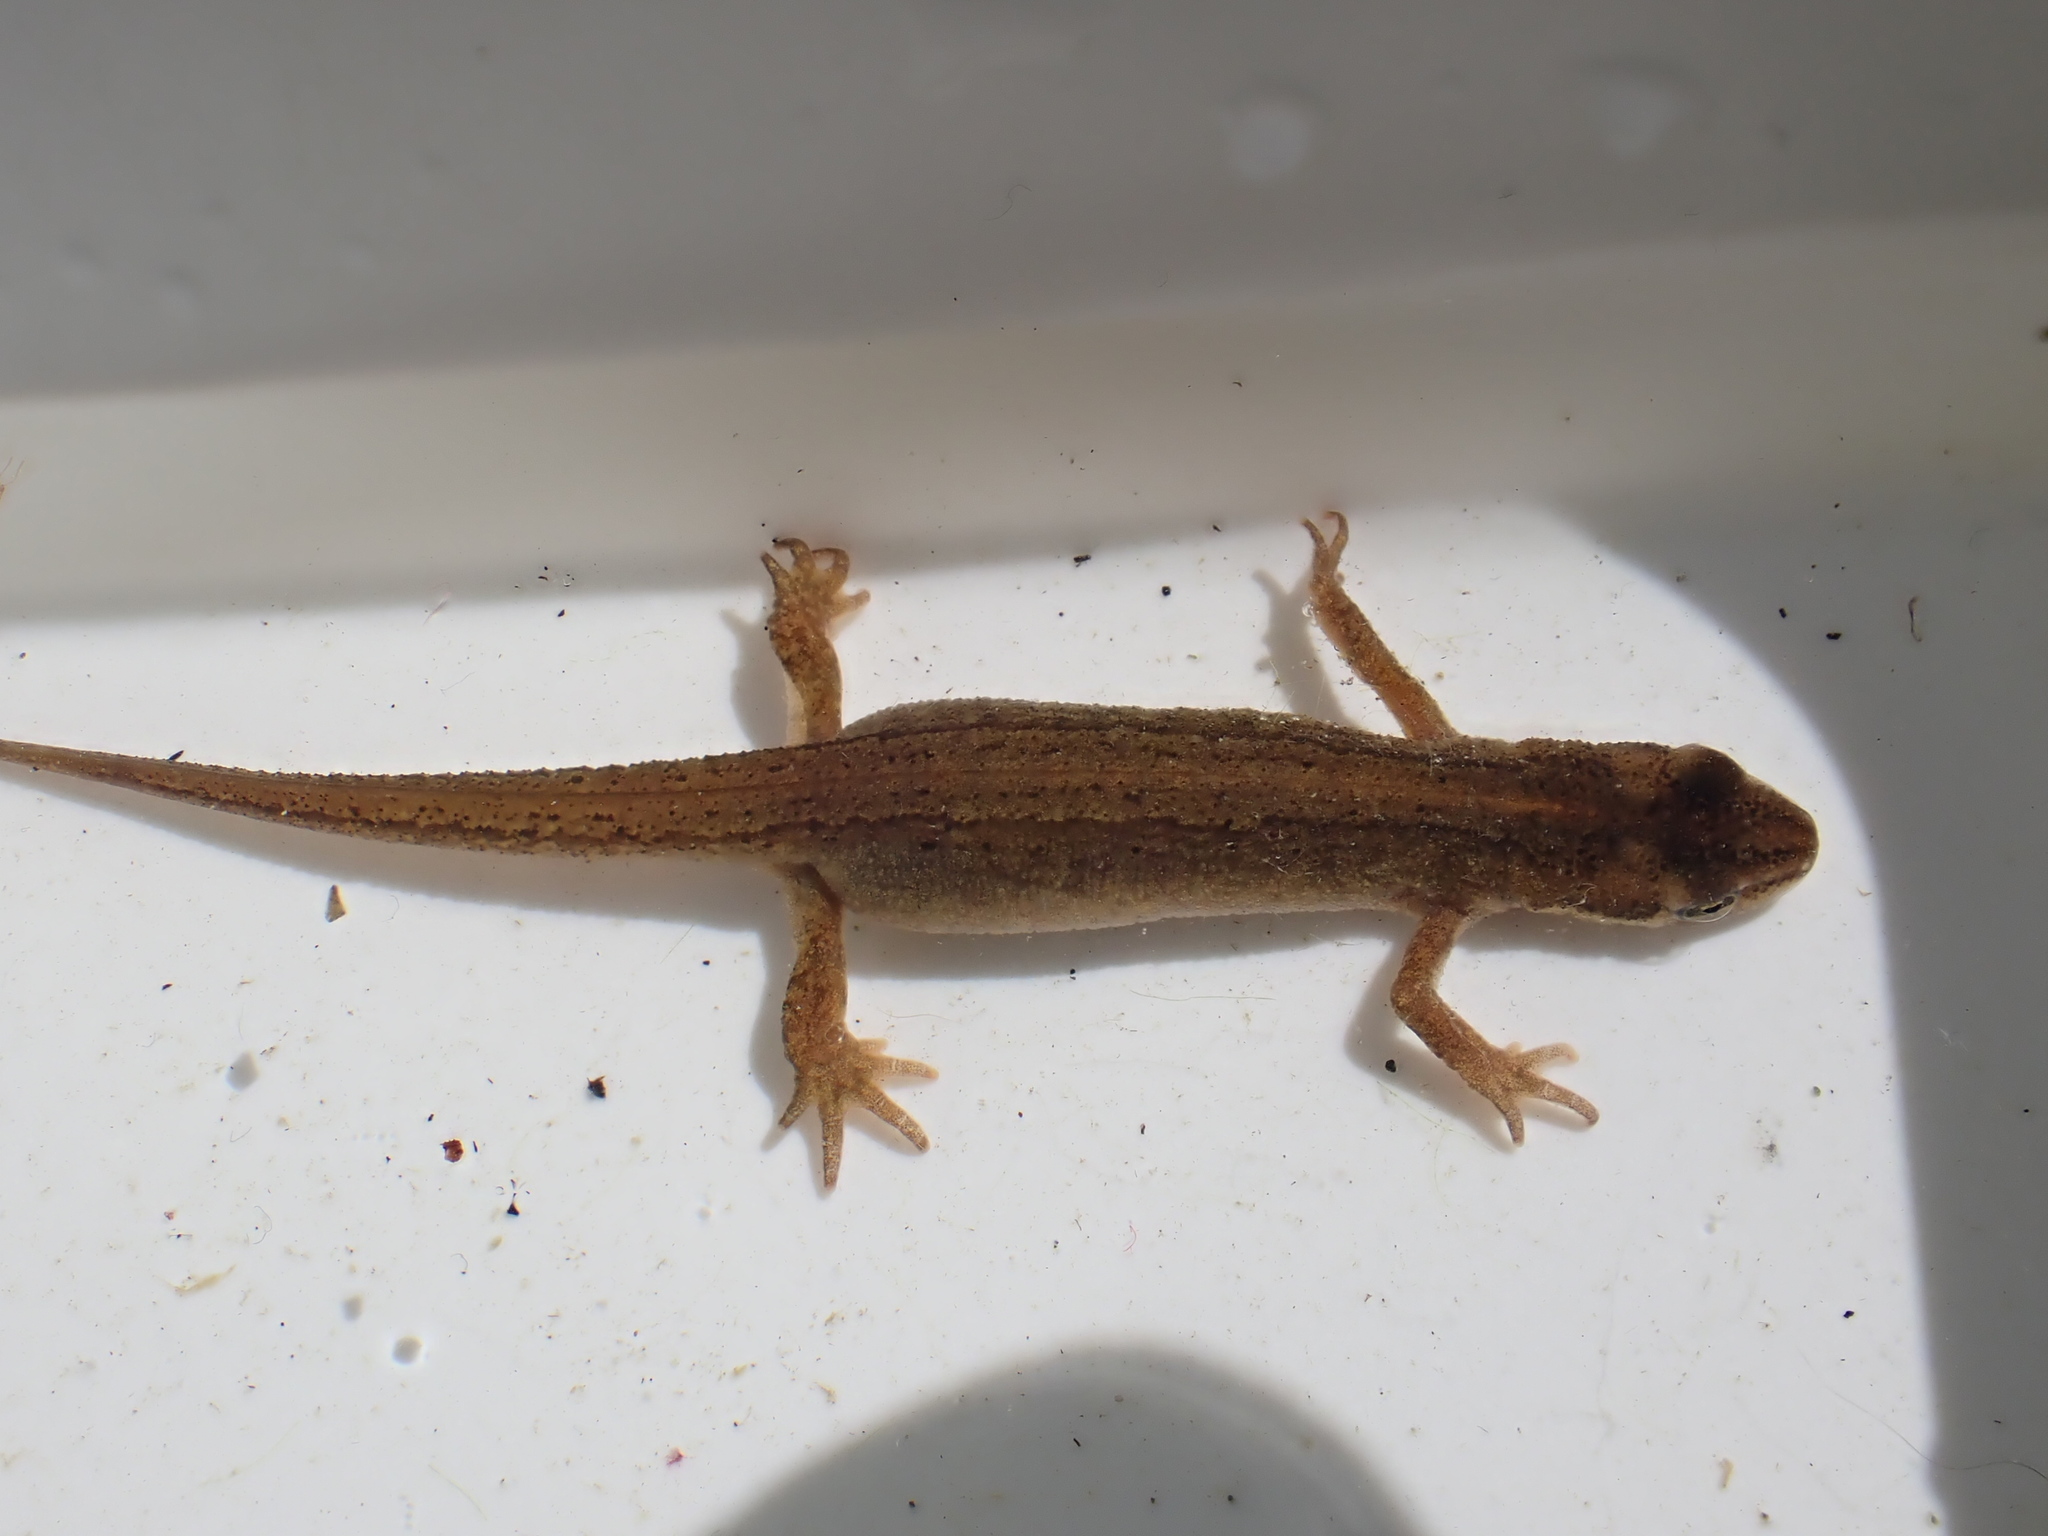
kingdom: Animalia
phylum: Chordata
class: Amphibia
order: Caudata
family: Salamandridae
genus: Lissotriton
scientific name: Lissotriton vulgaris
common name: Smooth newt
